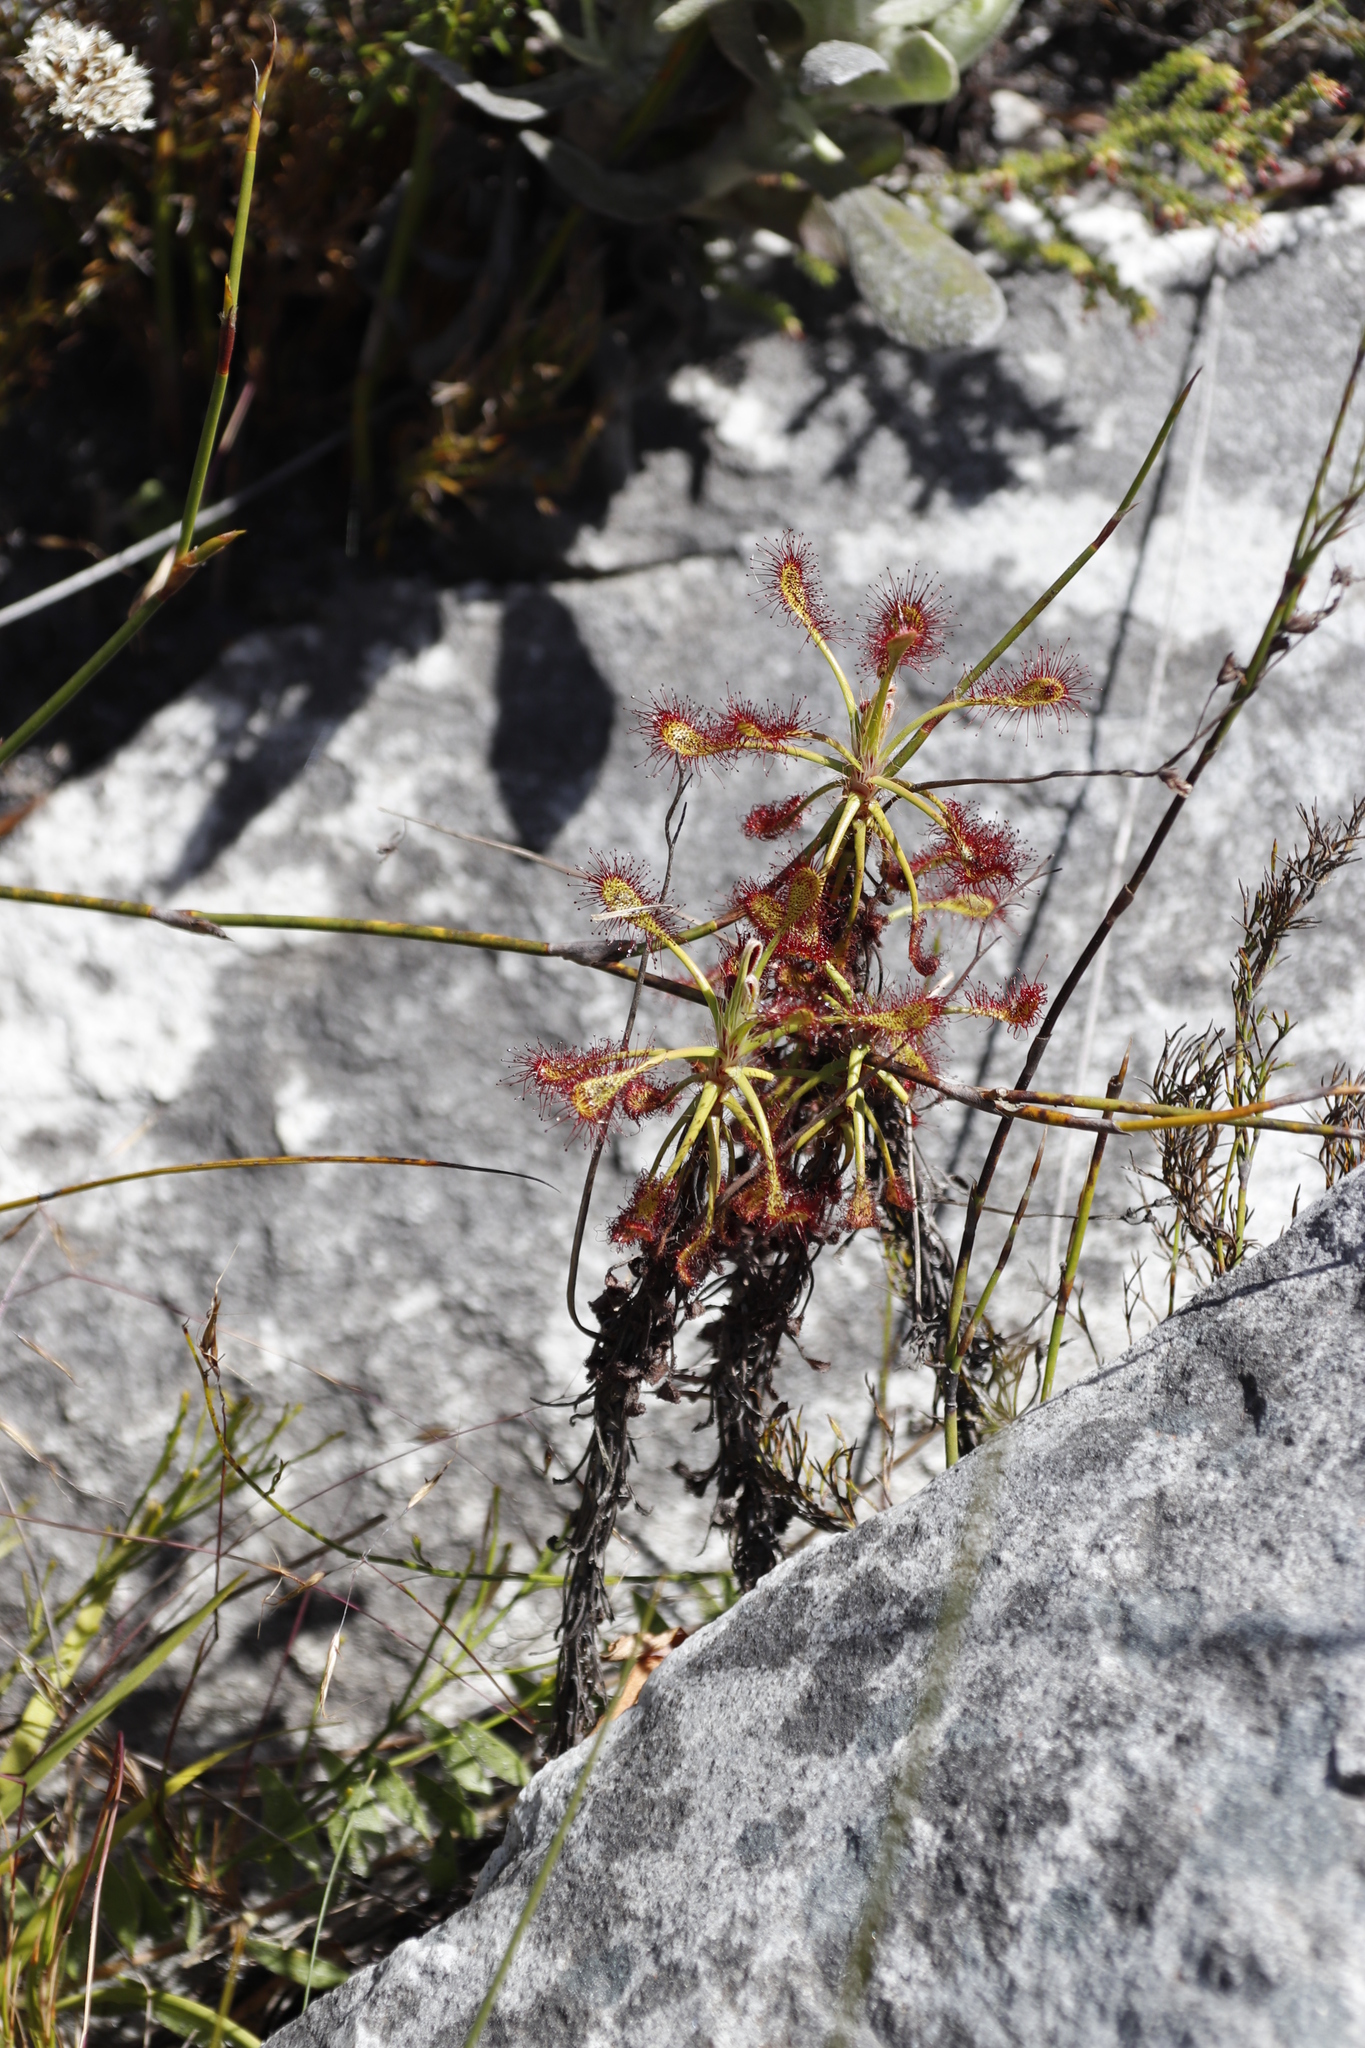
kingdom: Plantae
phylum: Tracheophyta
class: Magnoliopsida
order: Caryophyllales
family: Droseraceae
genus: Drosera
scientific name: Drosera glabripes
